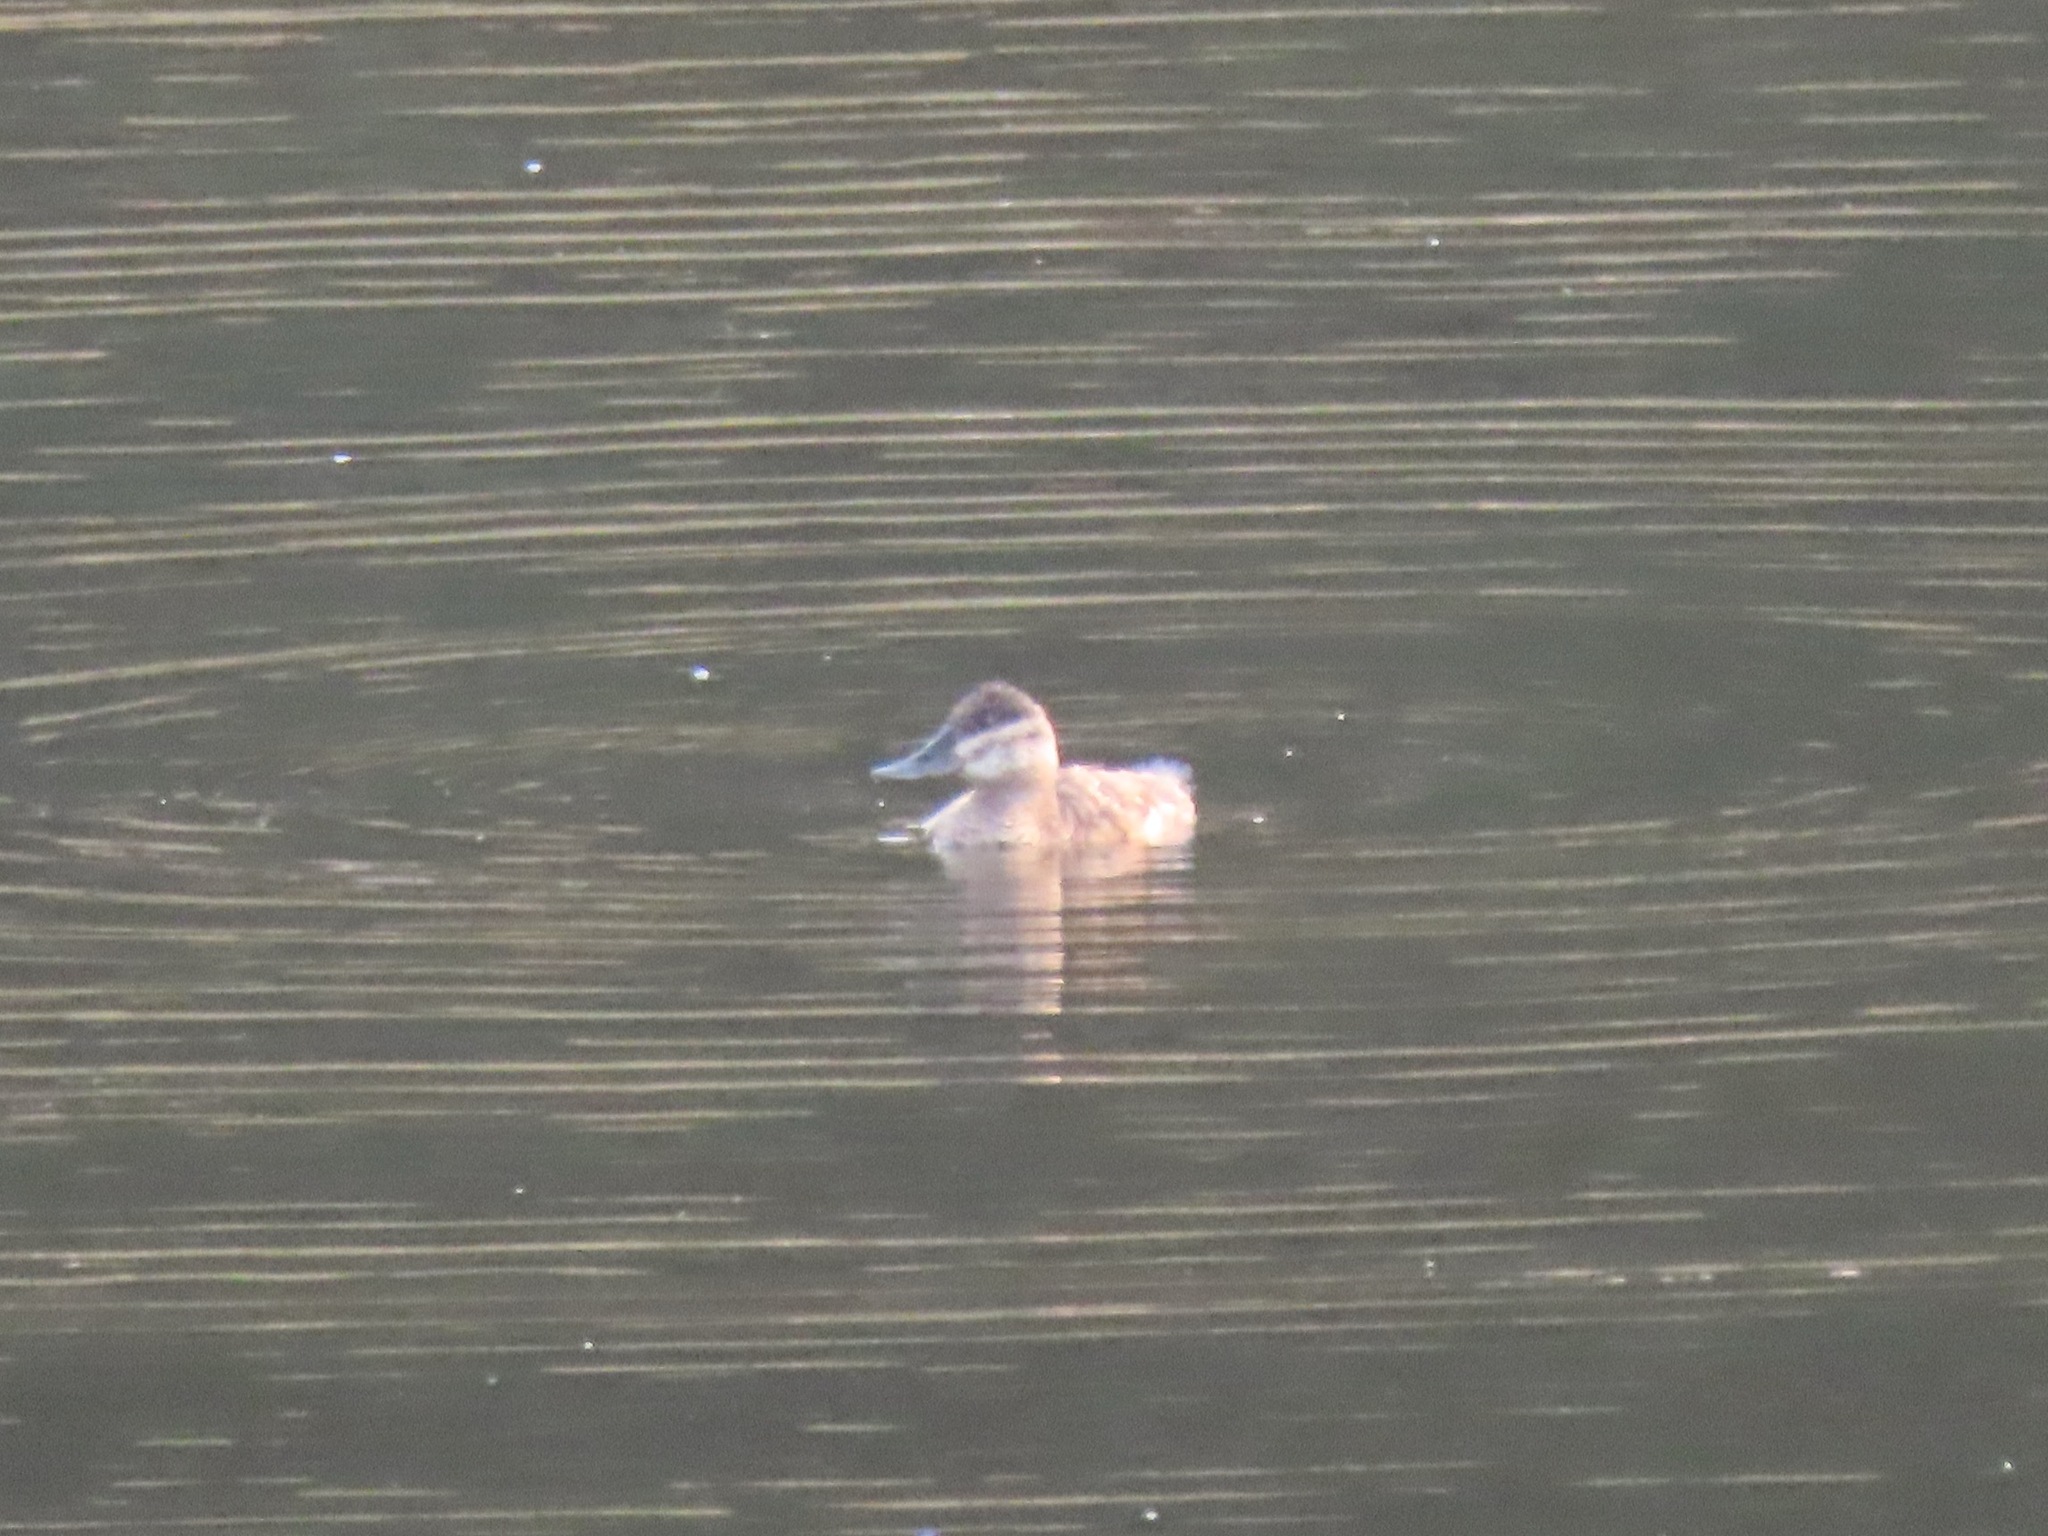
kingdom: Animalia
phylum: Chordata
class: Aves
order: Anseriformes
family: Anatidae
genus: Oxyura
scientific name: Oxyura jamaicensis
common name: Ruddy duck
